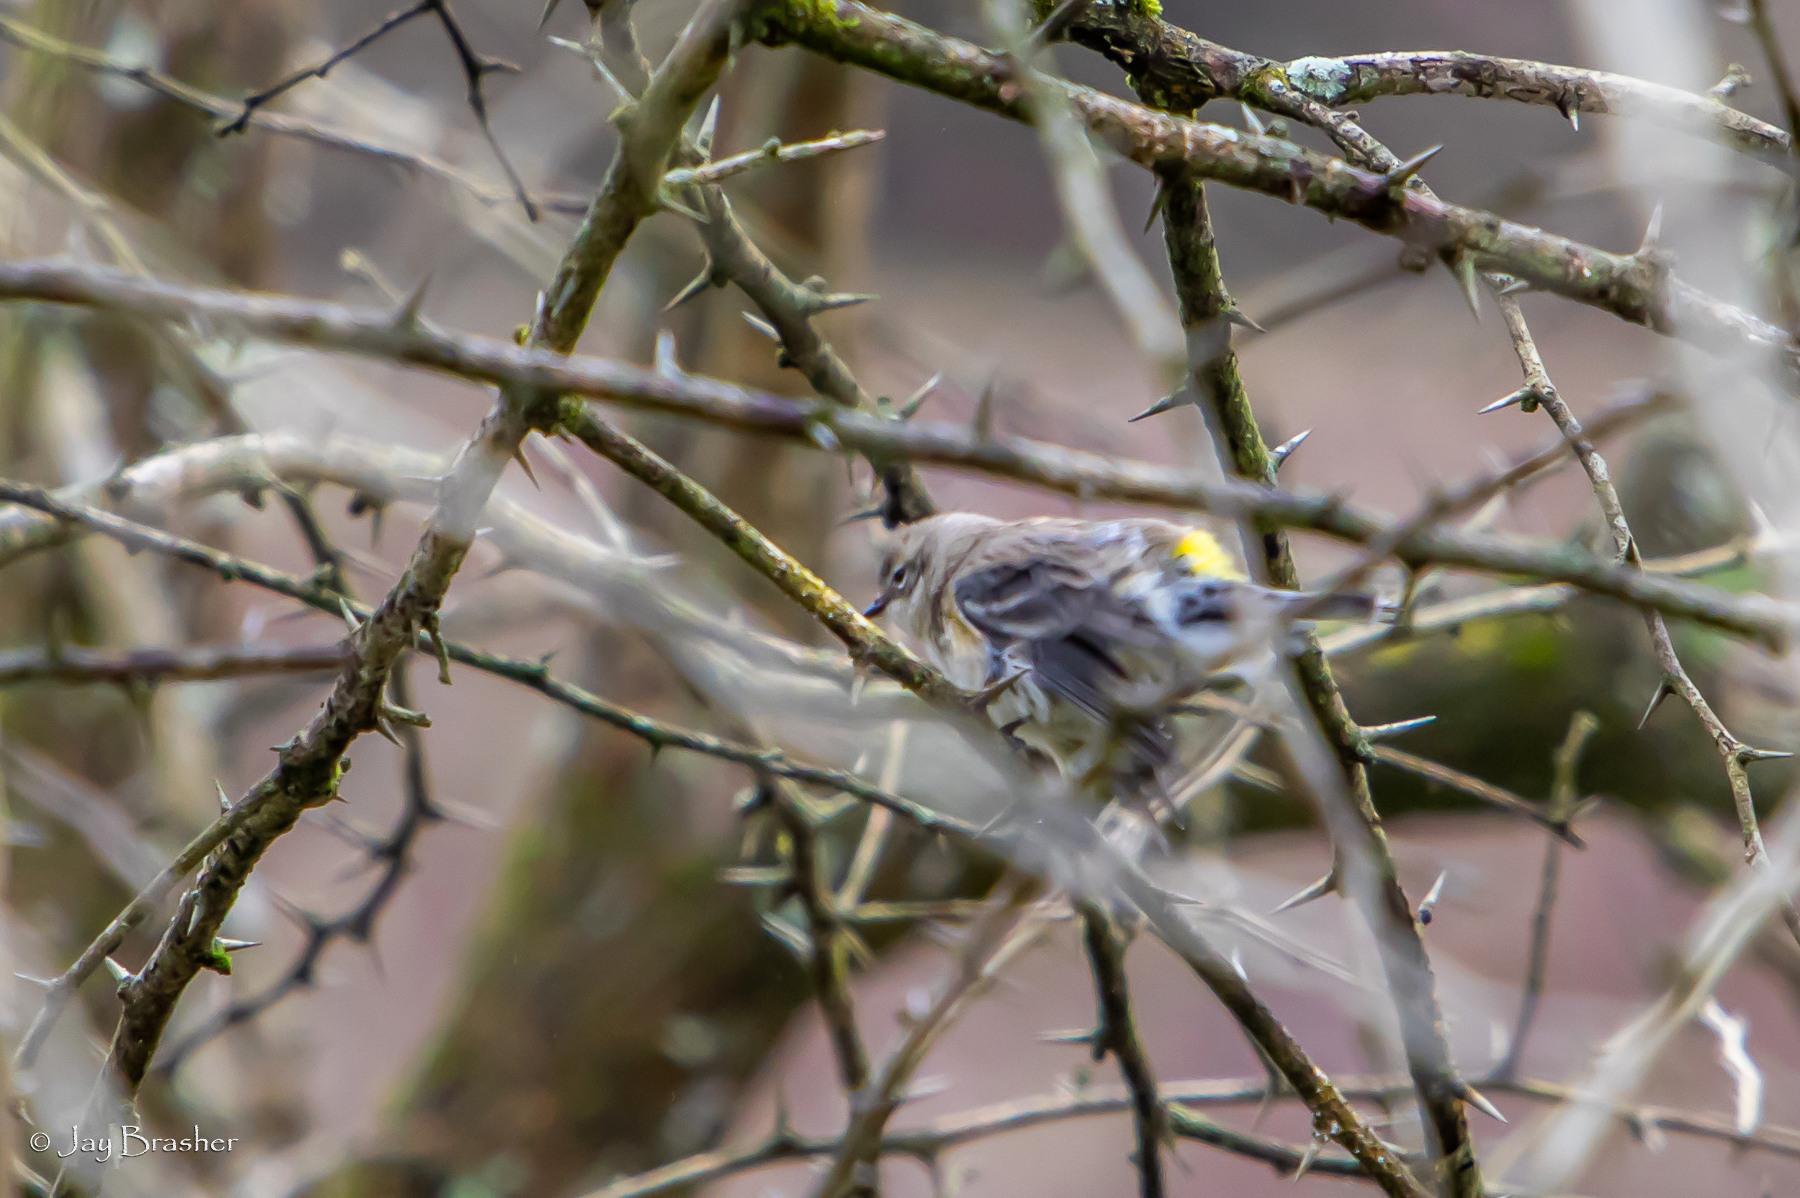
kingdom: Animalia
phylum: Chordata
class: Aves
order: Passeriformes
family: Parulidae
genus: Setophaga
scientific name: Setophaga coronata
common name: Myrtle warbler
